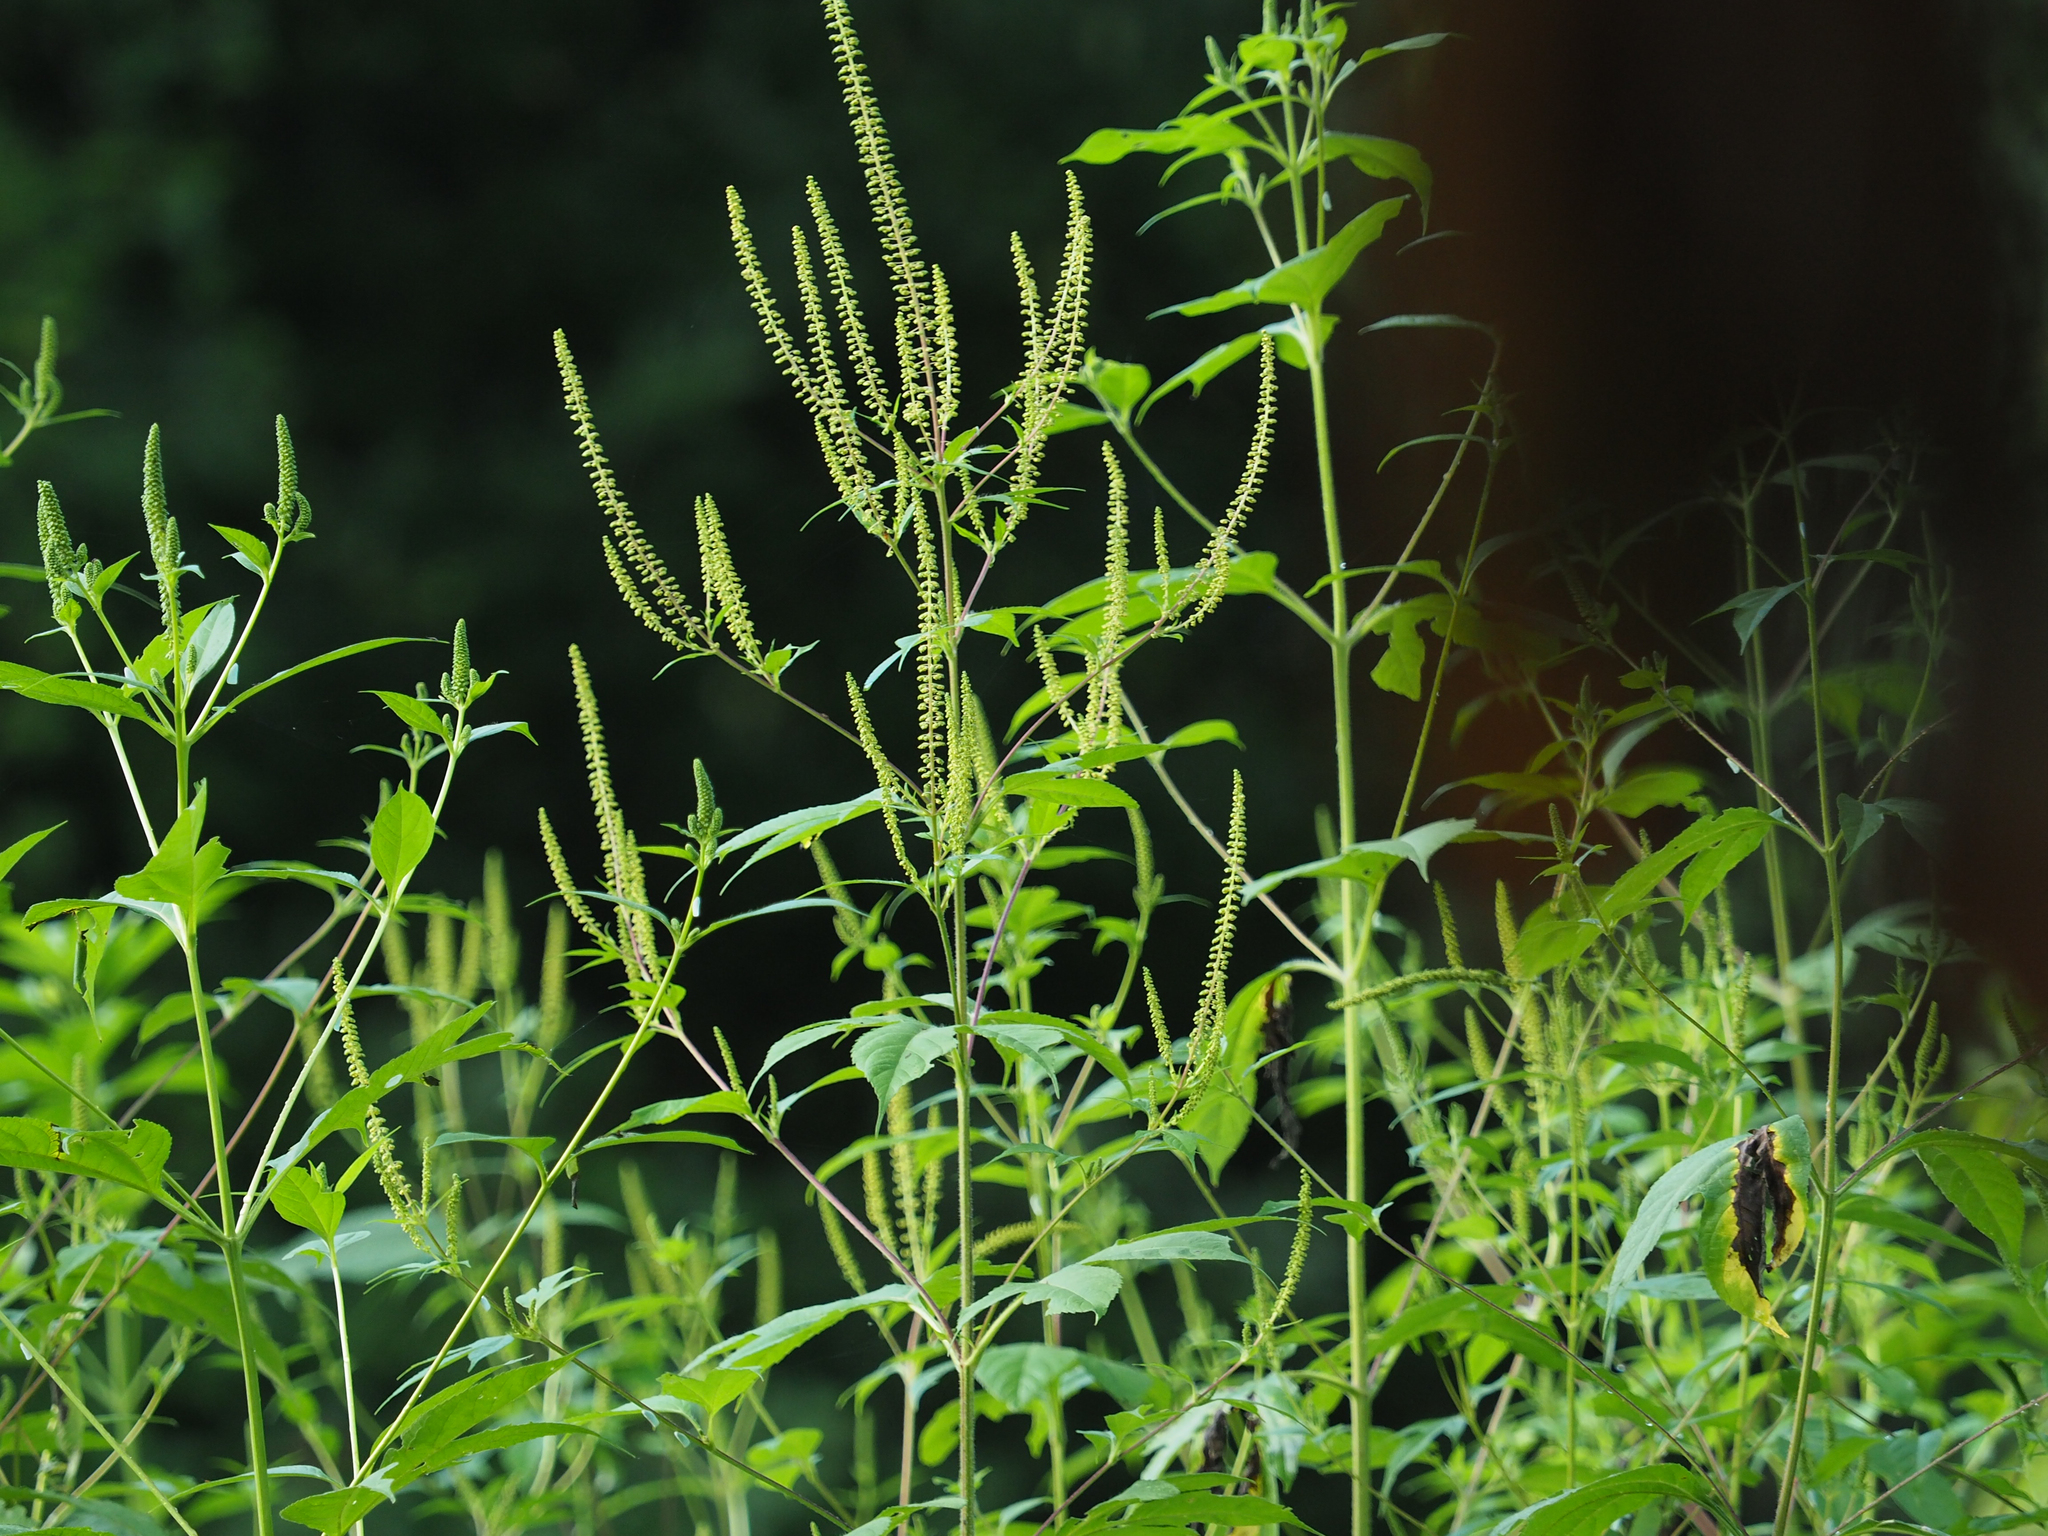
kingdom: Plantae
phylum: Tracheophyta
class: Magnoliopsida
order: Asterales
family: Asteraceae
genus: Ambrosia
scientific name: Ambrosia trifida
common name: Giant ragweed
